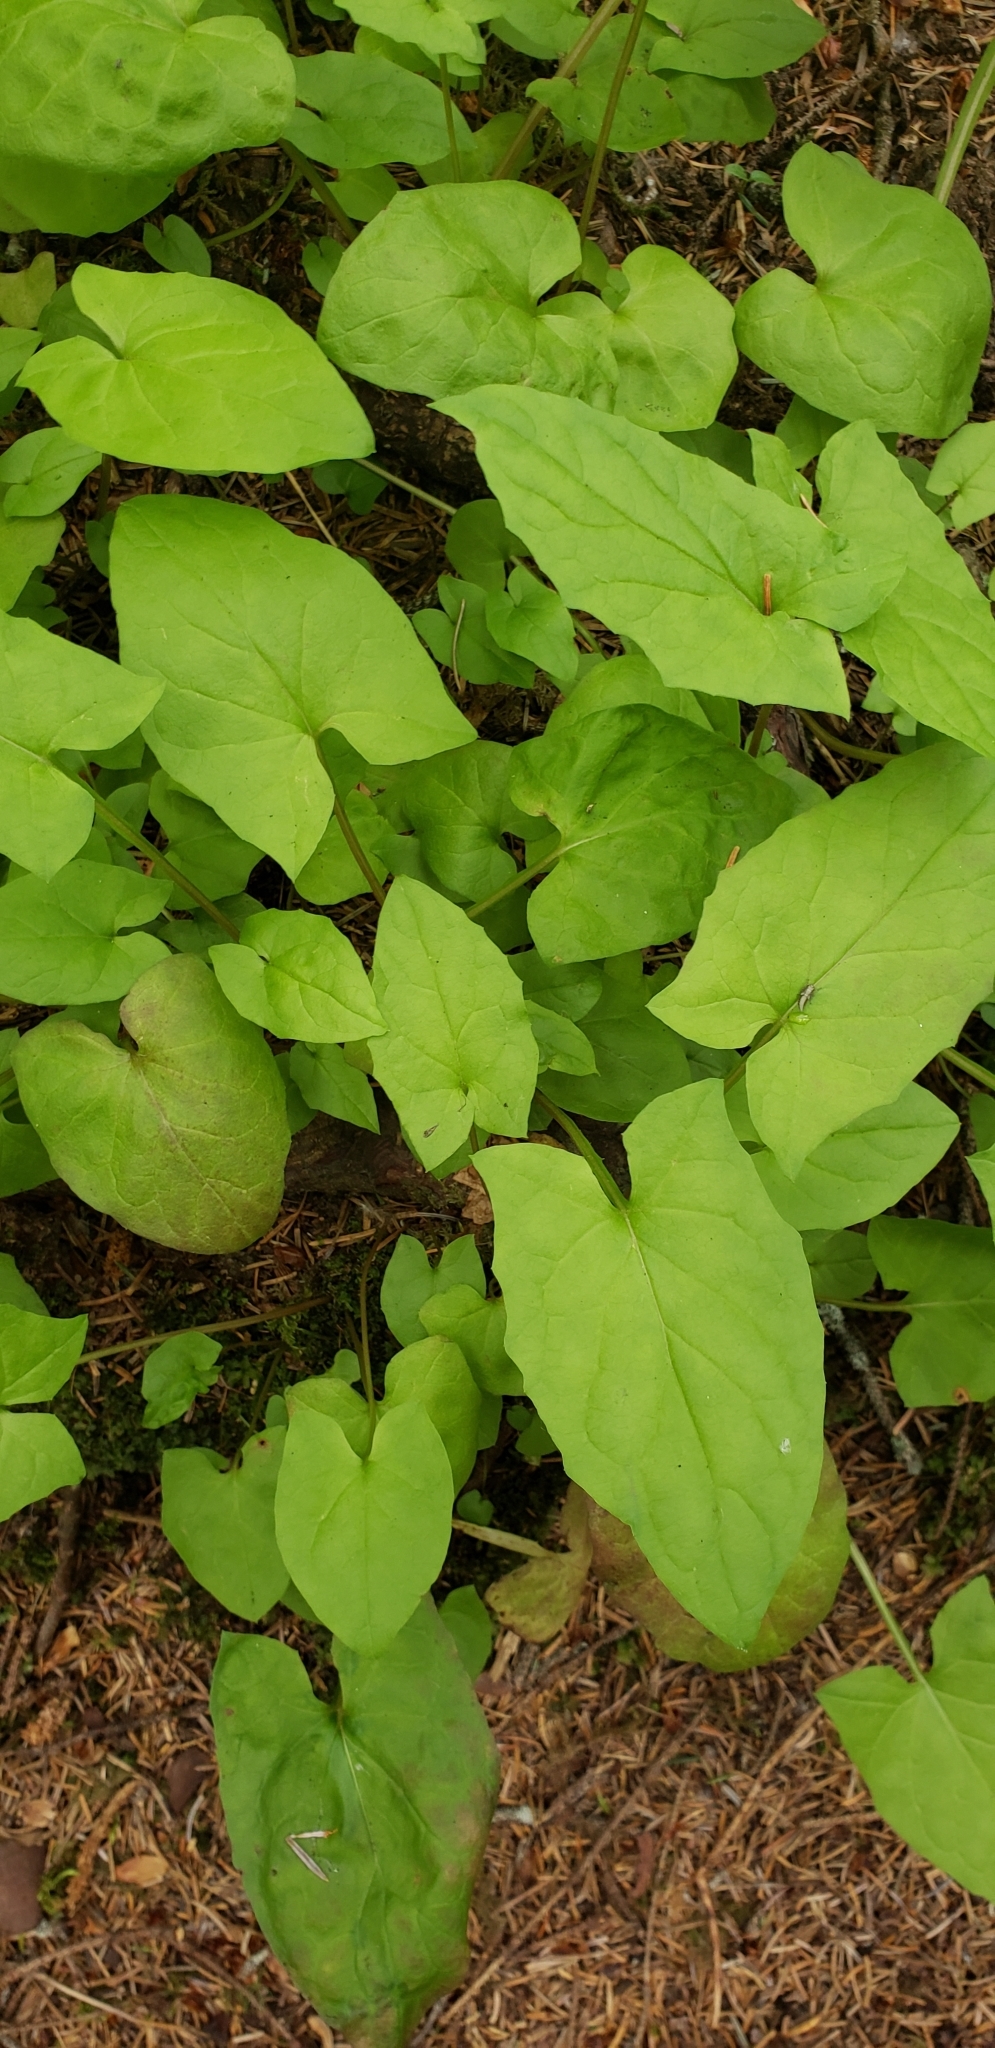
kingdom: Plantae
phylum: Tracheophyta
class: Magnoliopsida
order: Asterales
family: Asteraceae
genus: Nabalus
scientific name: Nabalus hastatus
